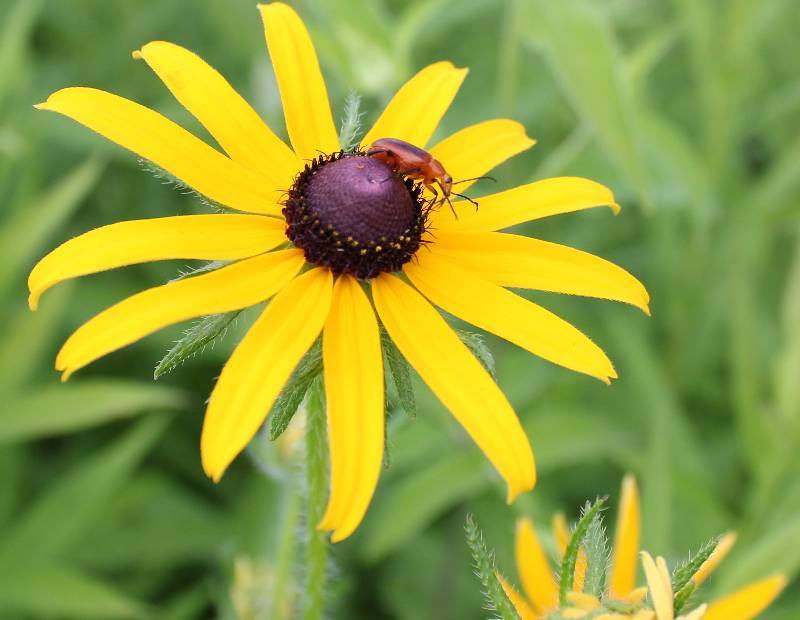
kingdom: Plantae
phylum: Tracheophyta
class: Magnoliopsida
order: Asterales
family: Asteraceae
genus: Rudbeckia
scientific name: Rudbeckia hirta
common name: Black-eyed-susan
